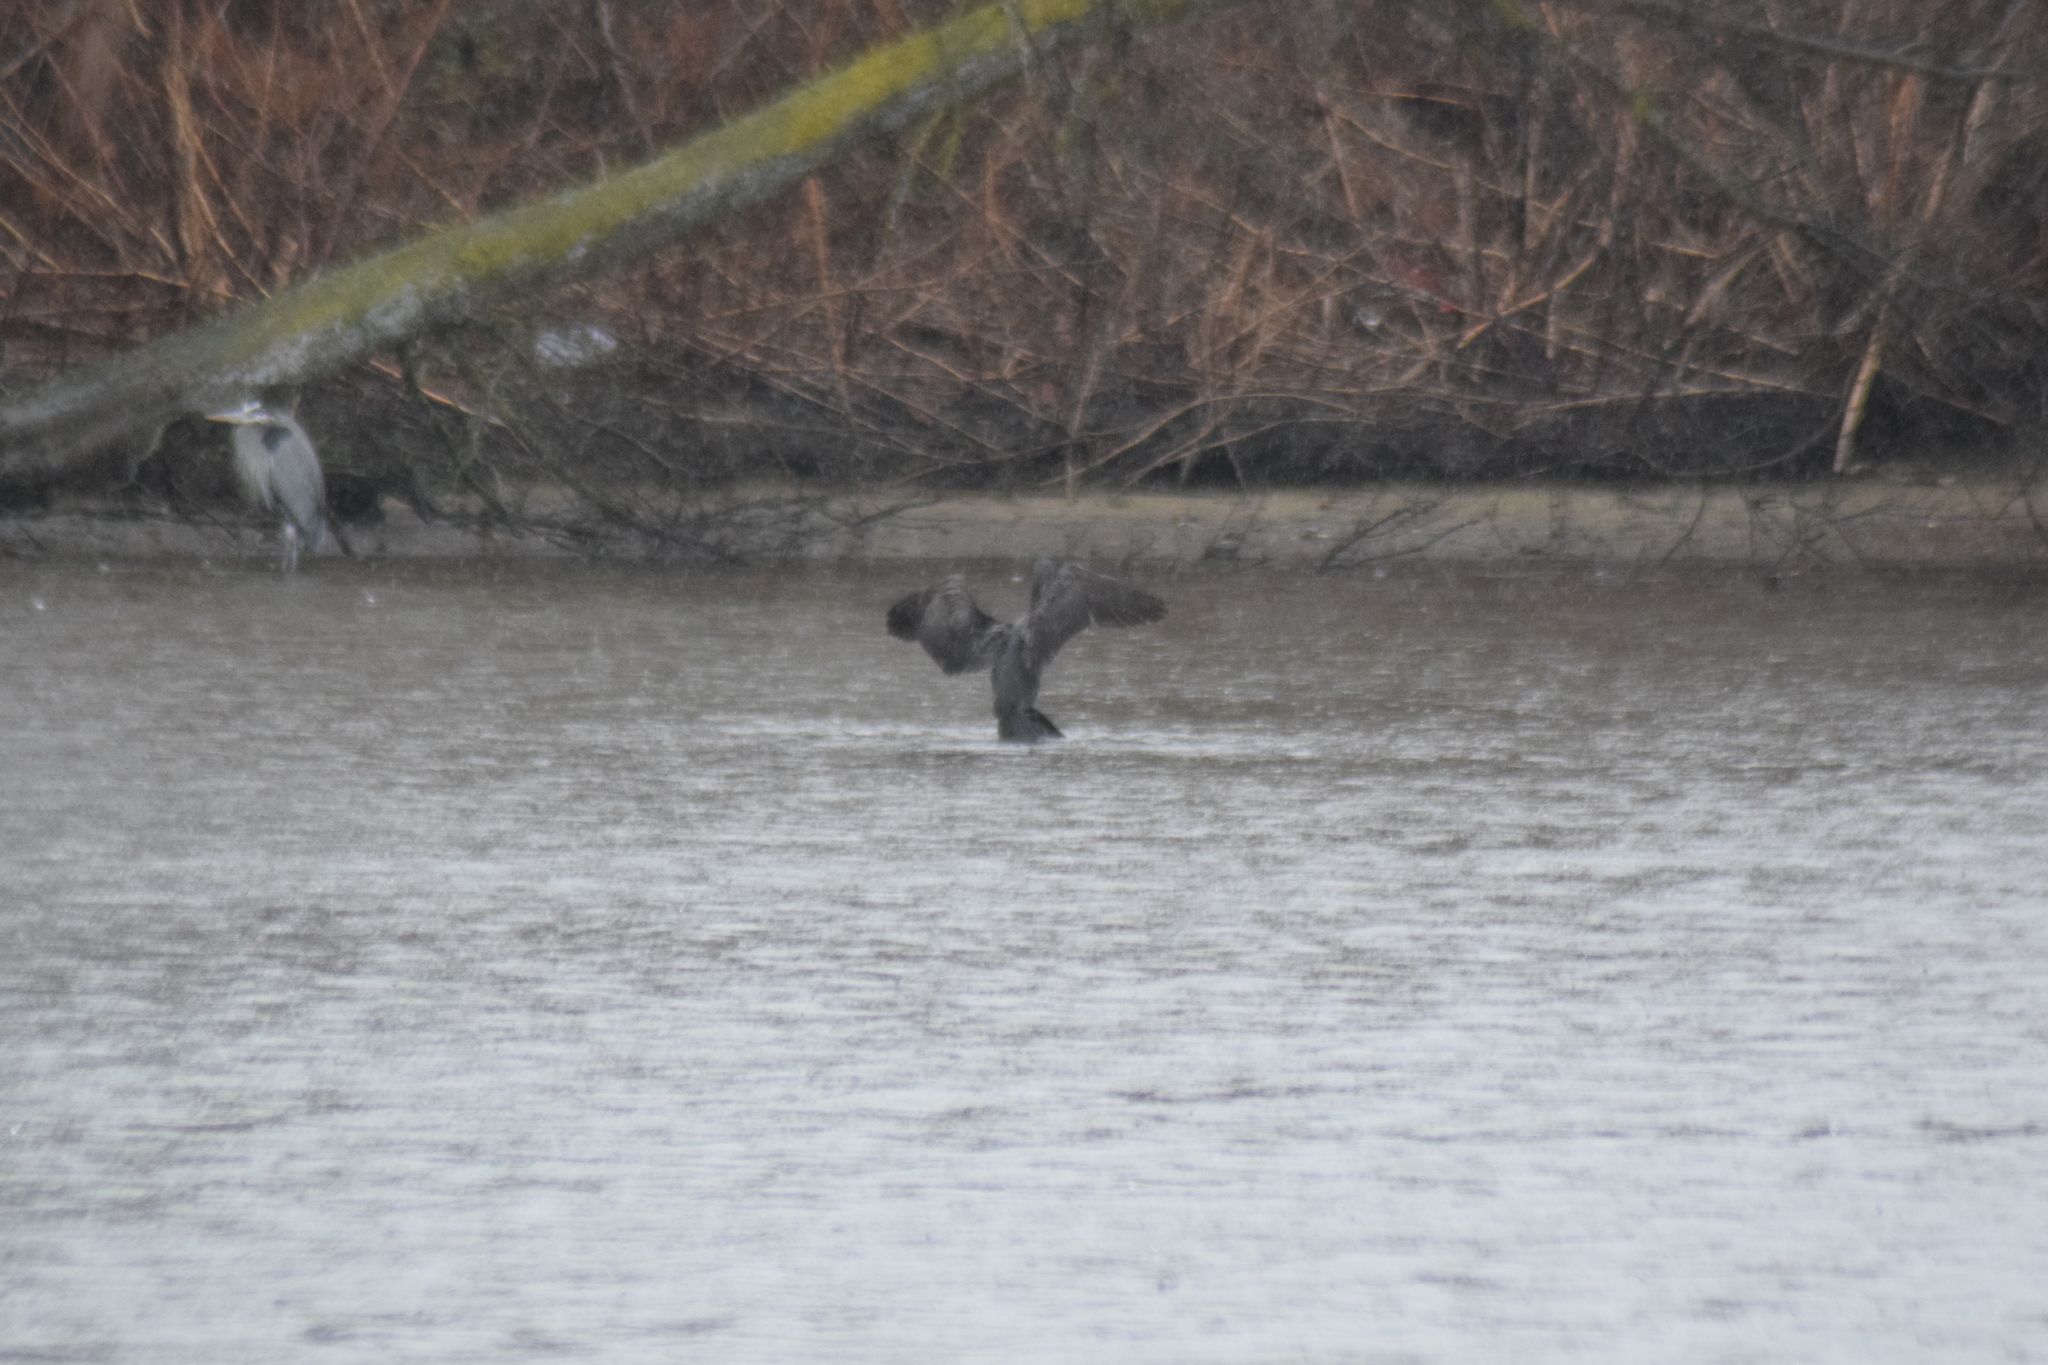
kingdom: Animalia
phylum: Chordata
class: Aves
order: Suliformes
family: Phalacrocoracidae
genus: Phalacrocorax
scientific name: Phalacrocorax auritus
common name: Double-crested cormorant
